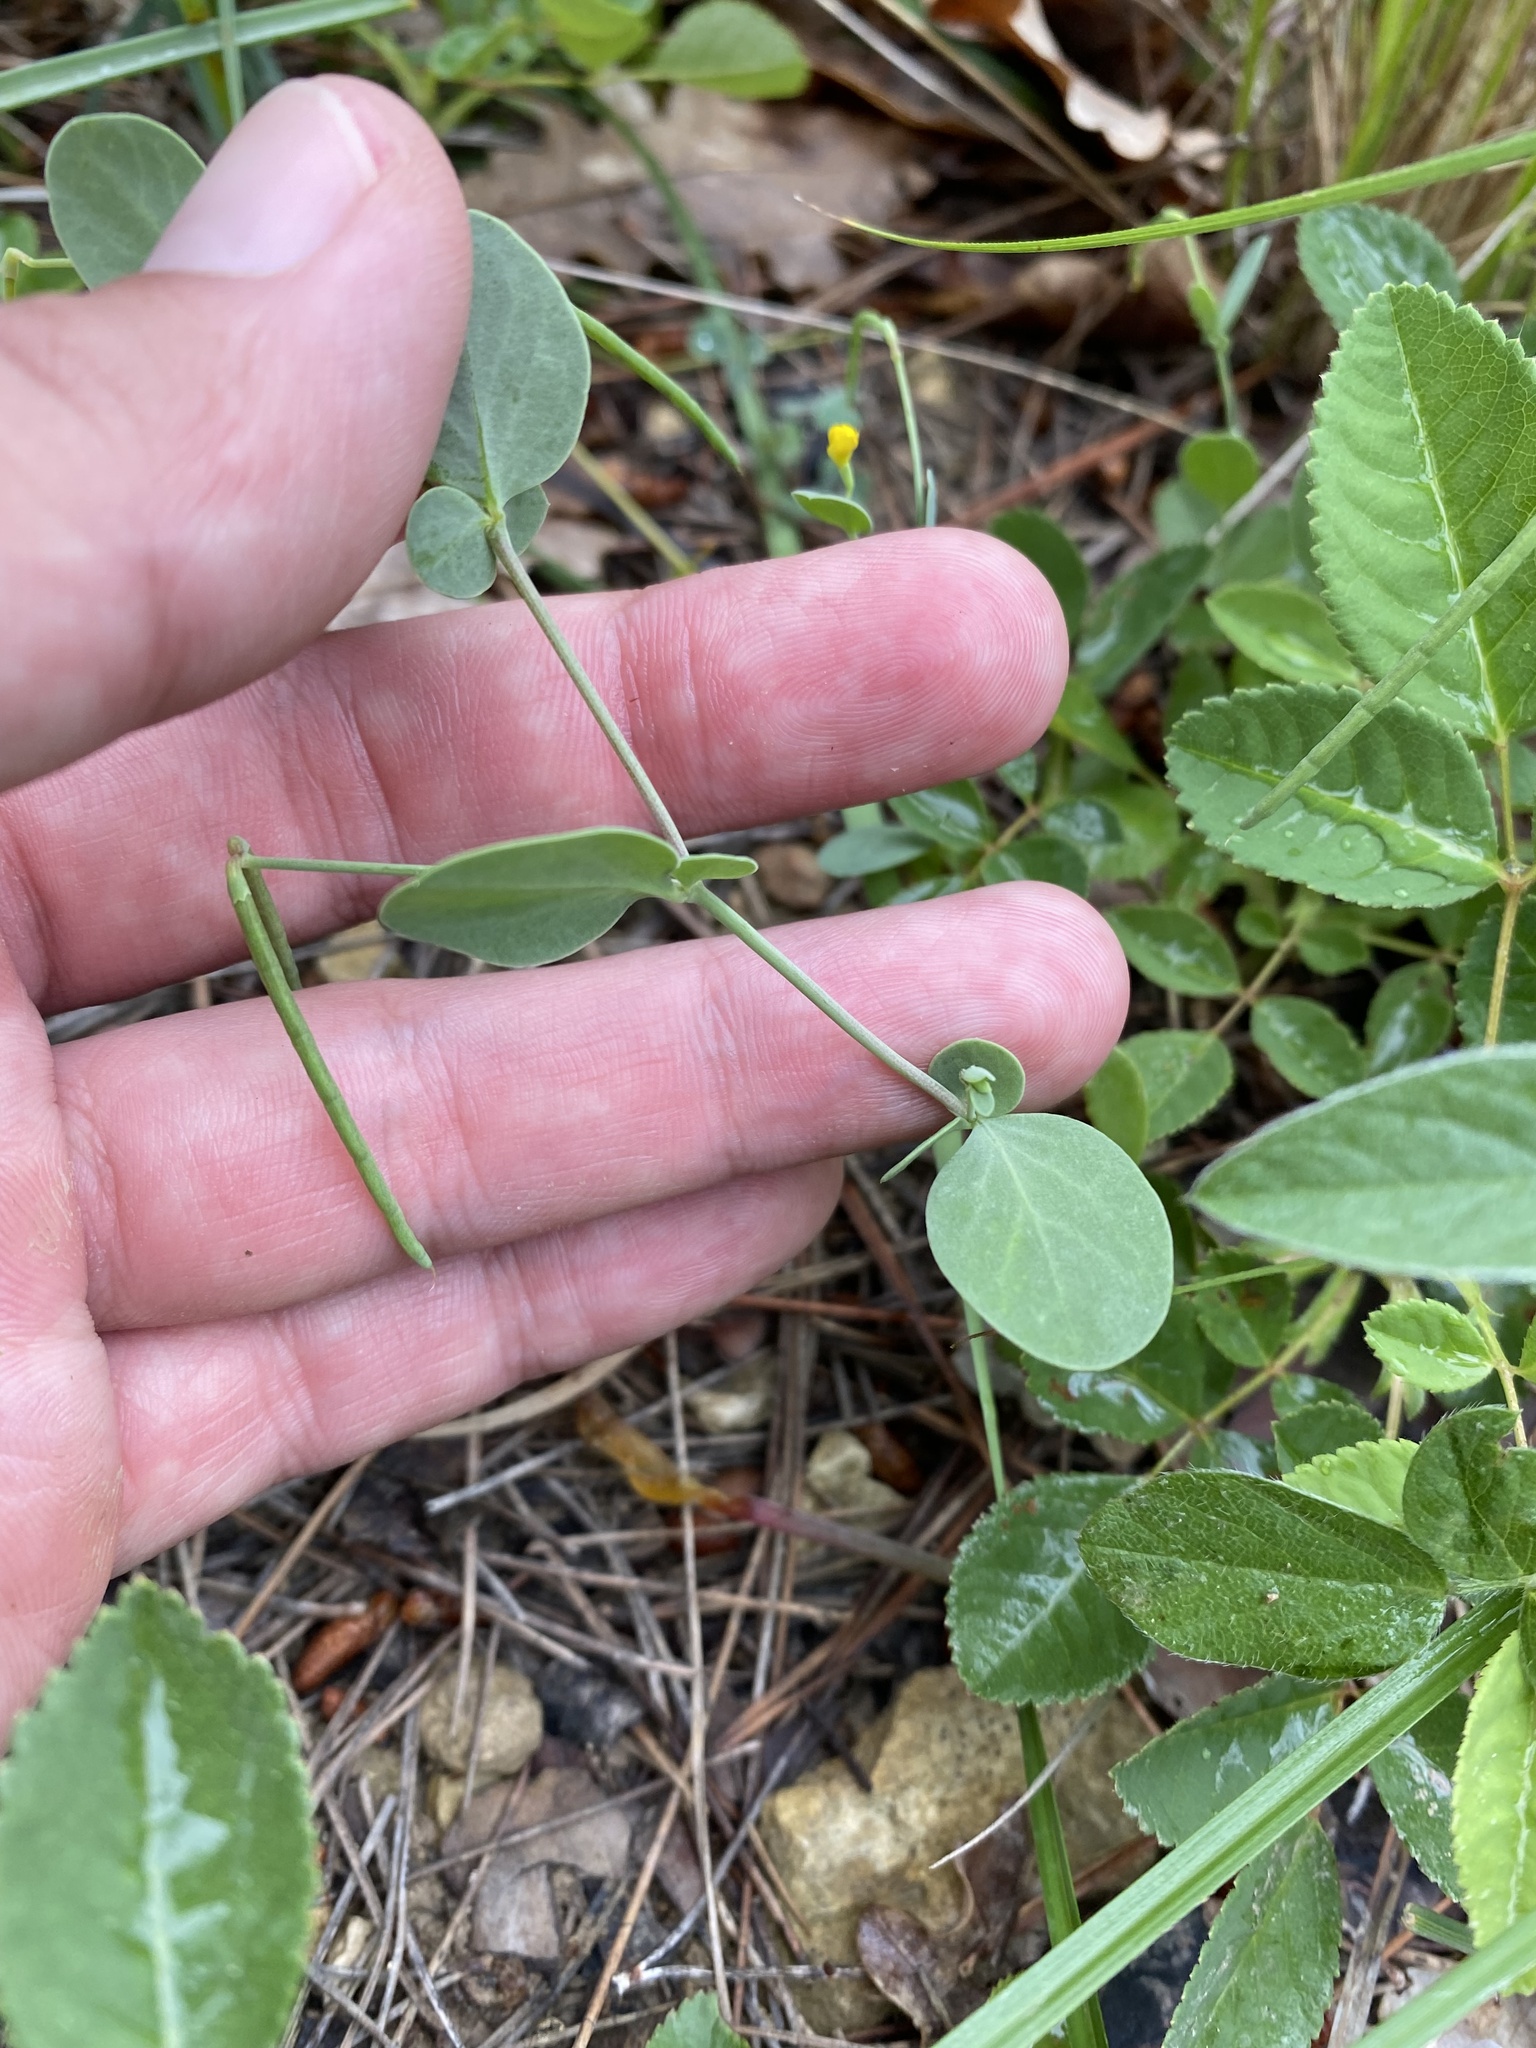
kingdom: Plantae
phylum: Tracheophyta
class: Magnoliopsida
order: Fabales
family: Fabaceae
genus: Coronilla
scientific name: Coronilla scorpioides
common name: Annual scorpion-vetch
